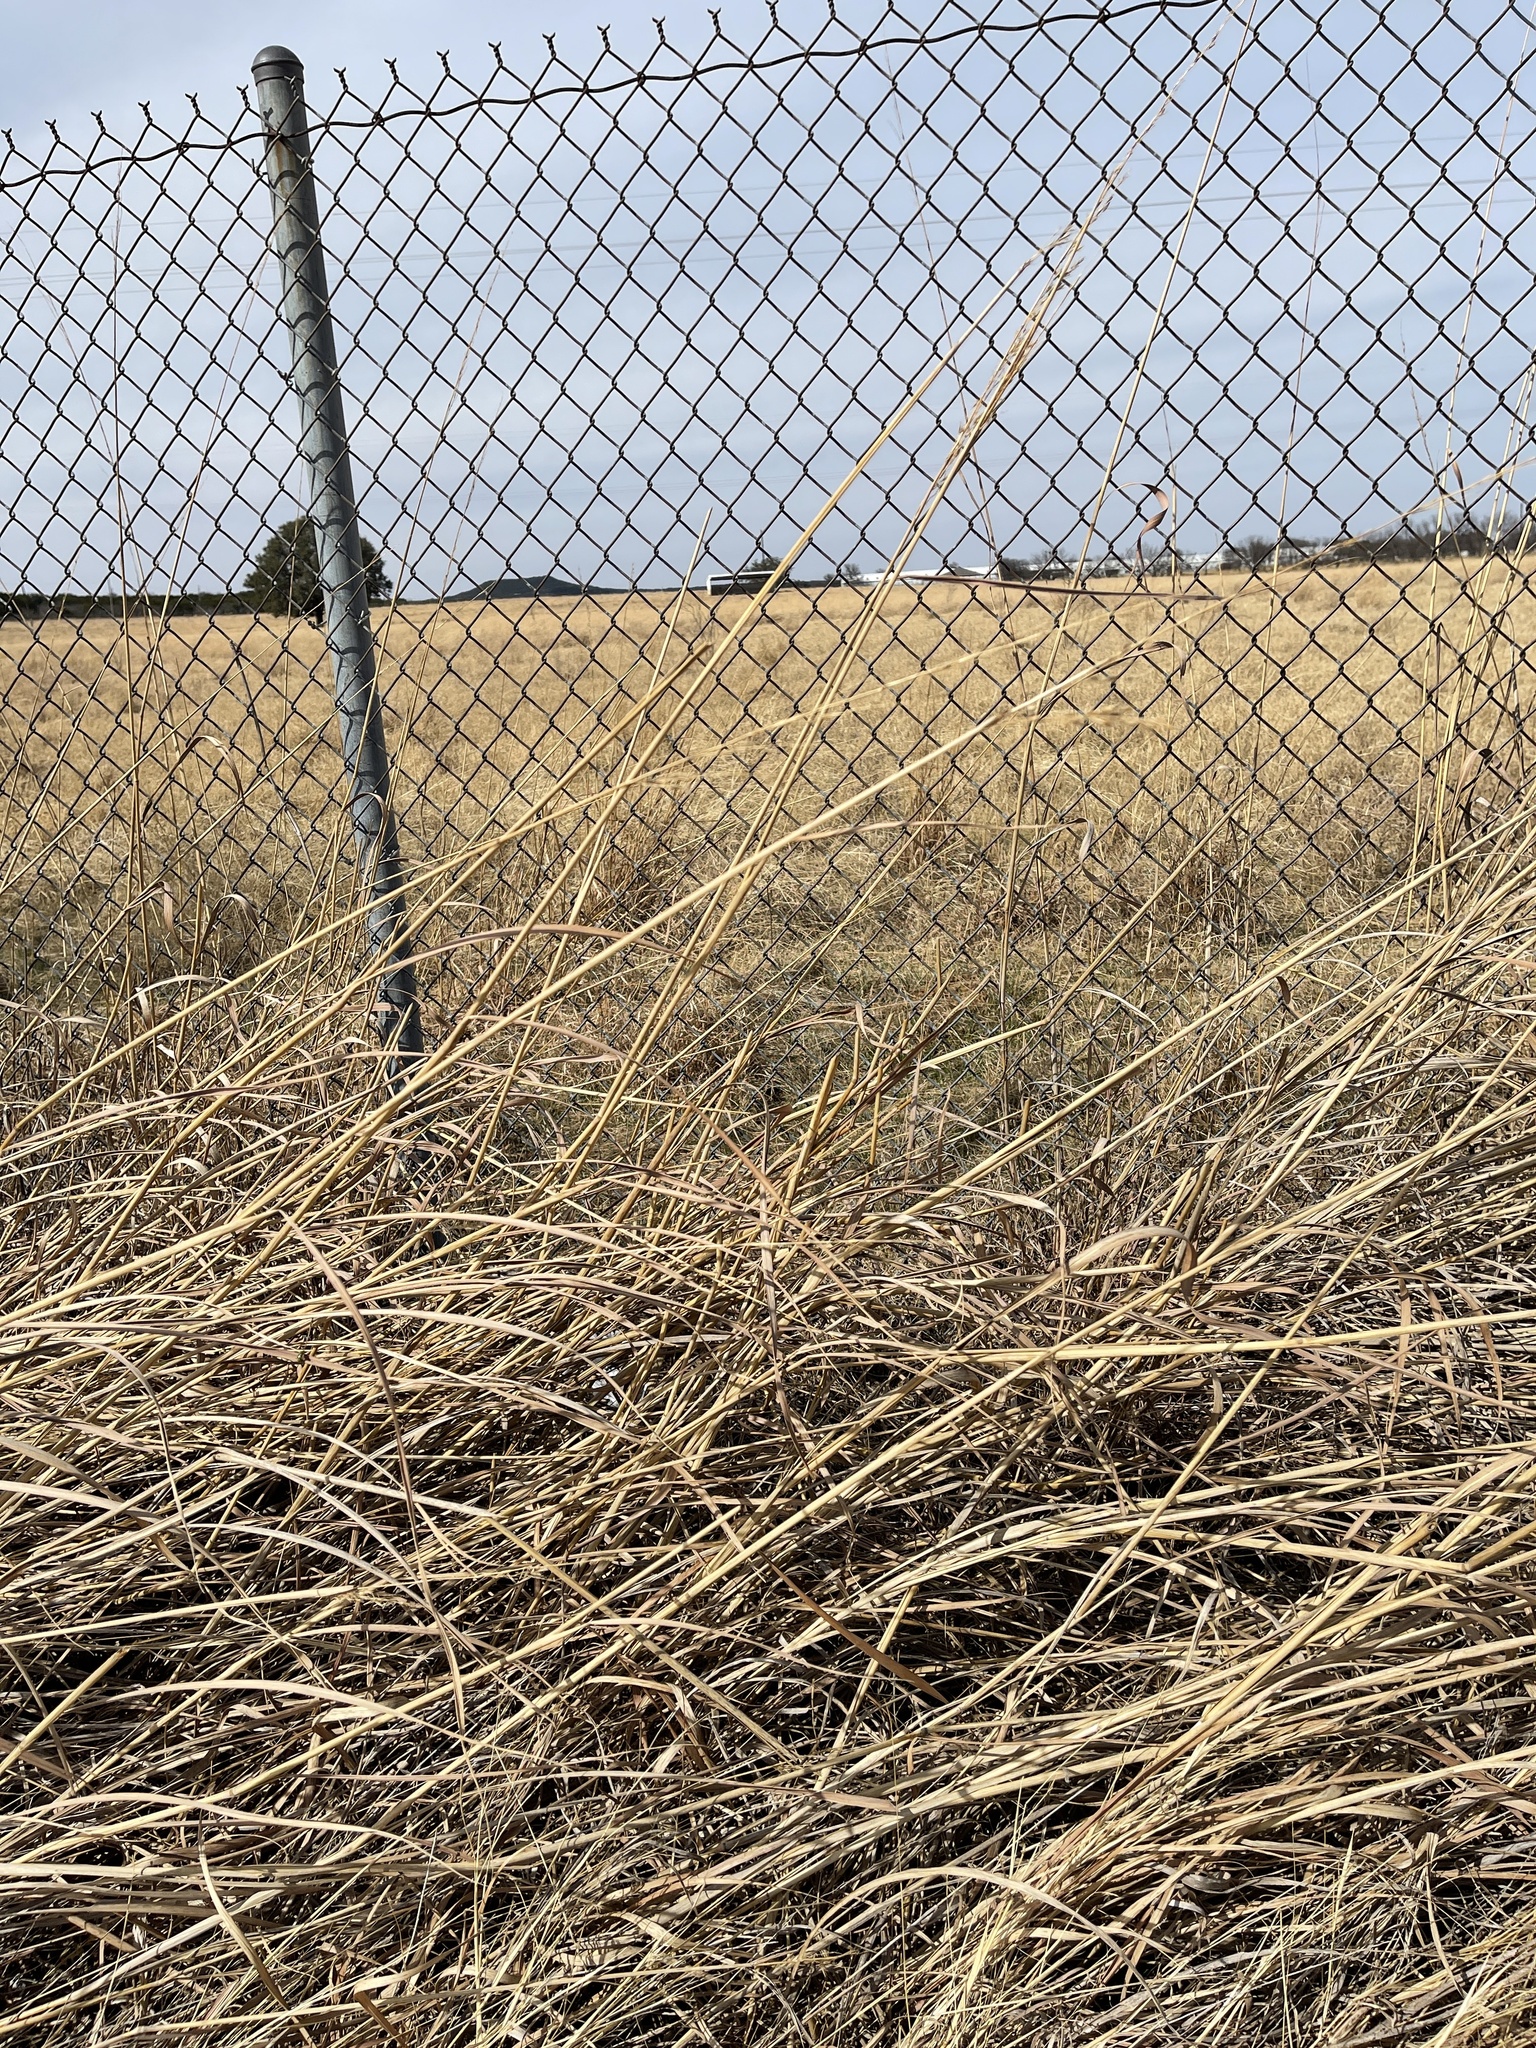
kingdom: Plantae
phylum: Tracheophyta
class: Liliopsida
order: Poales
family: Poaceae
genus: Sorghastrum
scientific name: Sorghastrum nutans
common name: Indian grass
